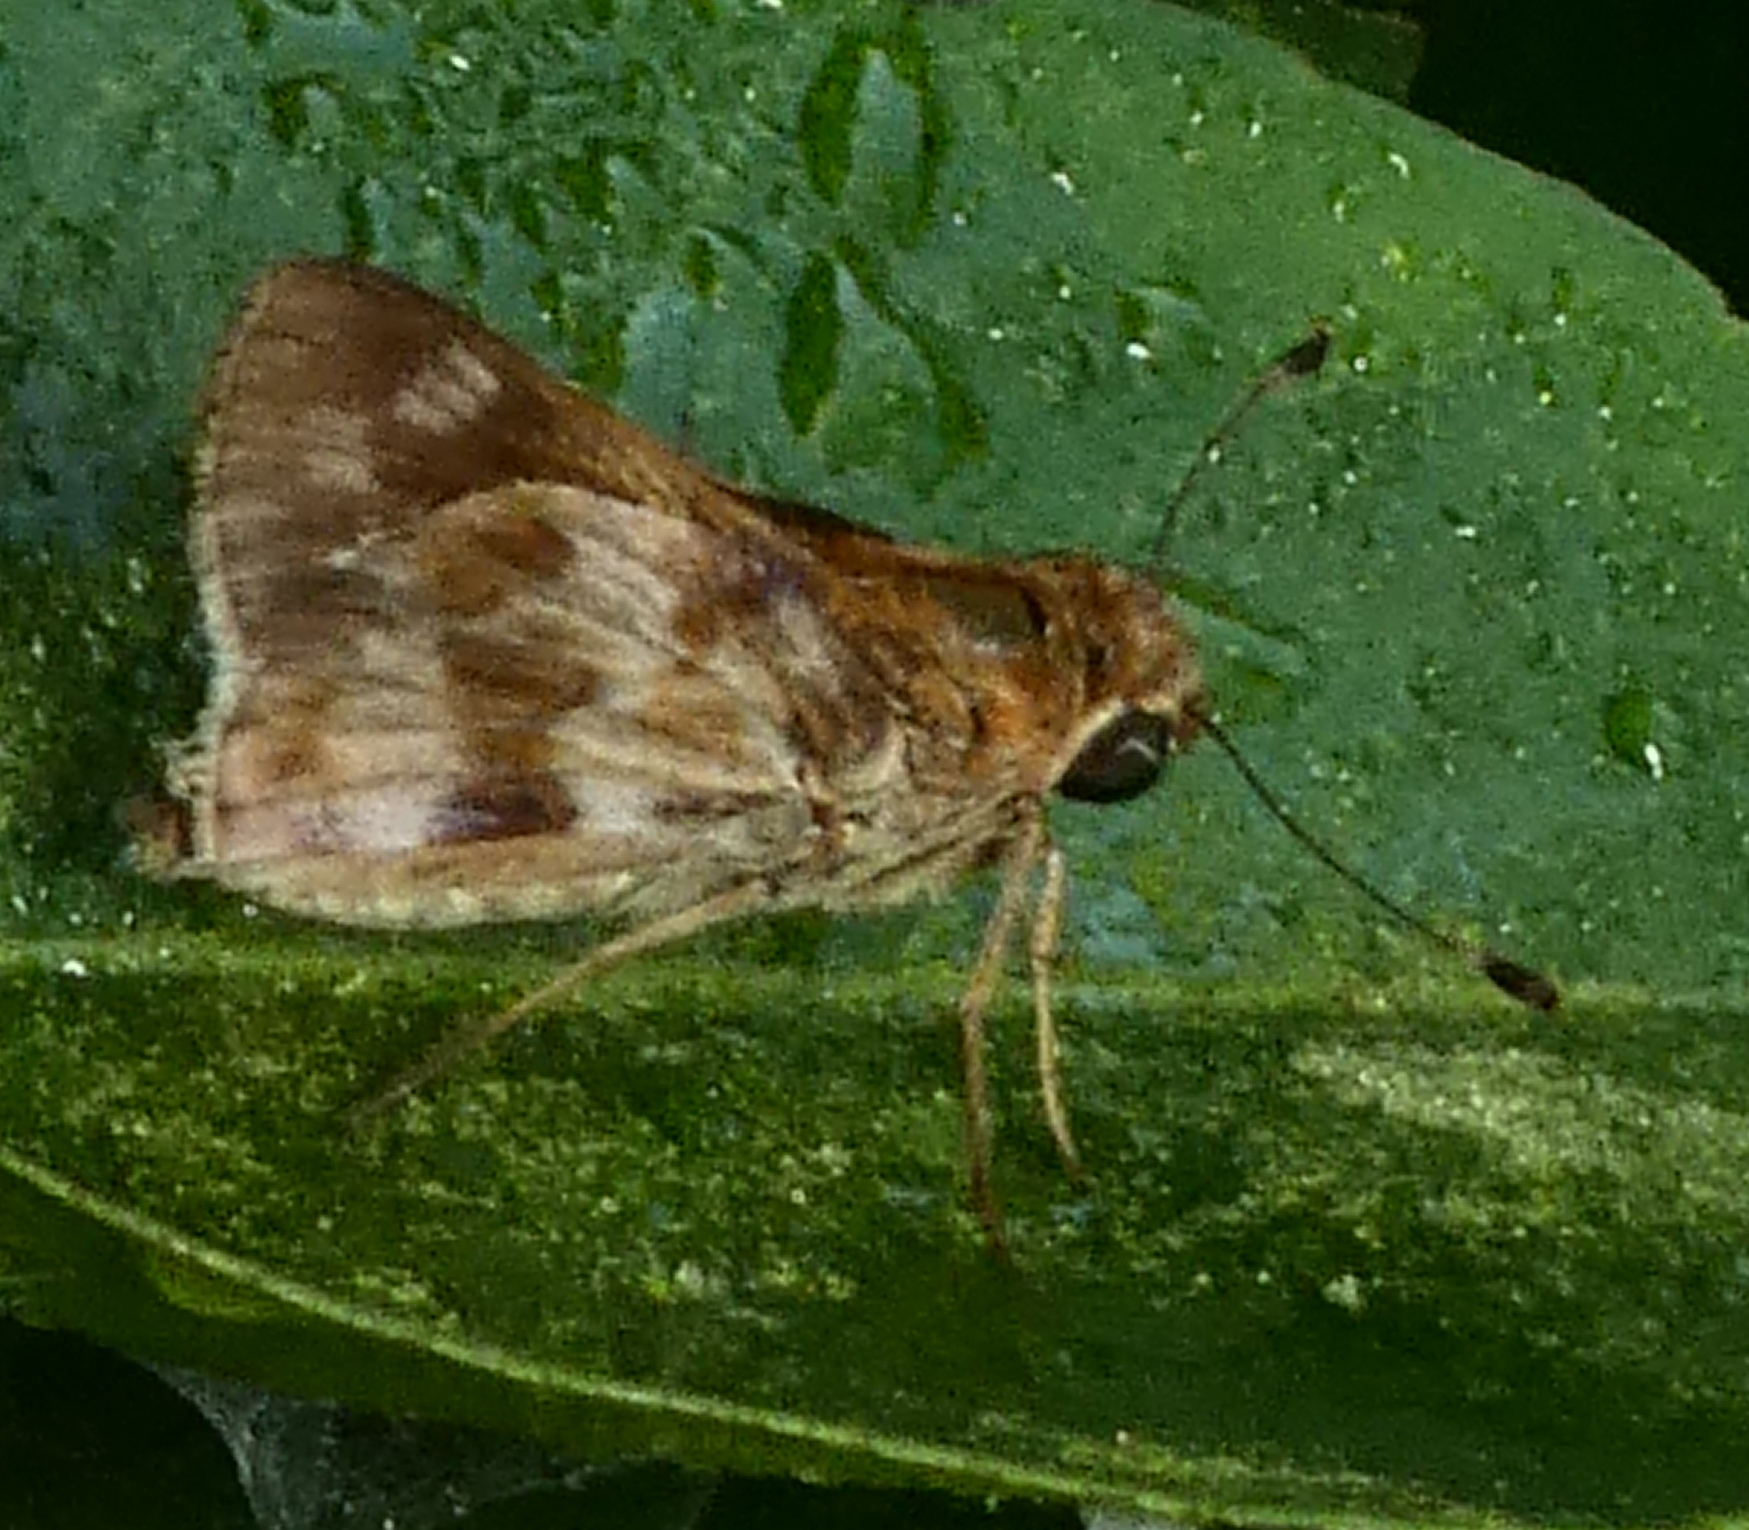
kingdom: Animalia
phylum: Arthropoda
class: Insecta
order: Lepidoptera
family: Hesperiidae
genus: Pompeius
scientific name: Pompeius pompeius
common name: Pompeius skipper
